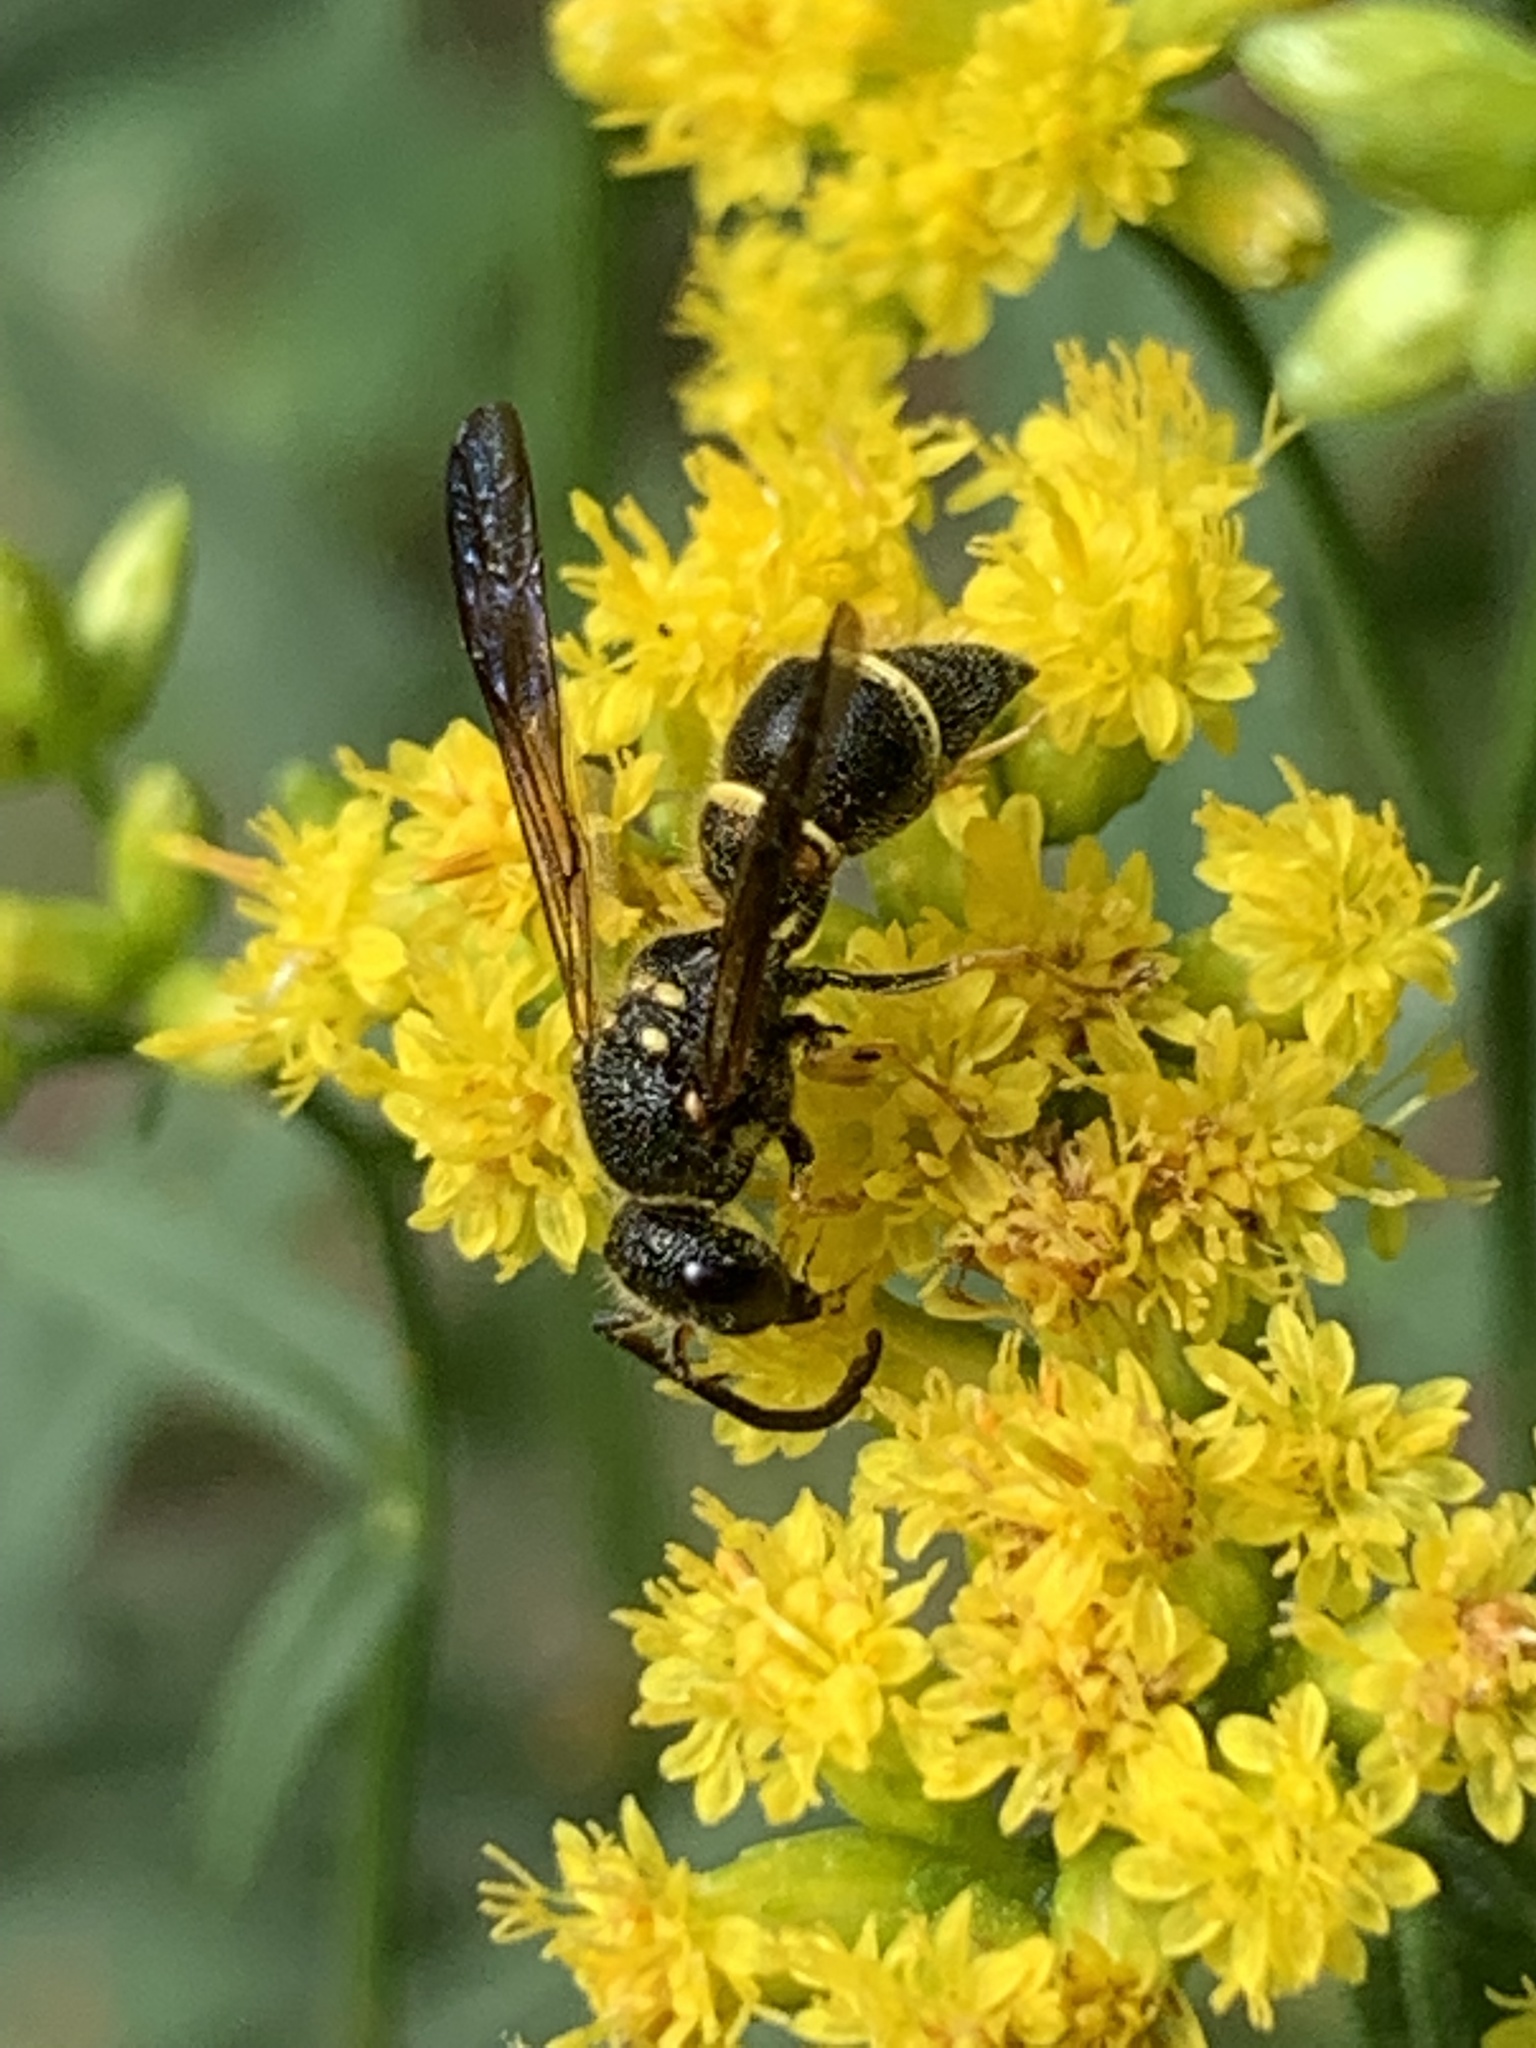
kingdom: Animalia
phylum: Arthropoda
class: Insecta
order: Hymenoptera
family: Vespidae
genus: Ancistrocerus
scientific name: Ancistrocerus campestris
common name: Smiling mason wasp
